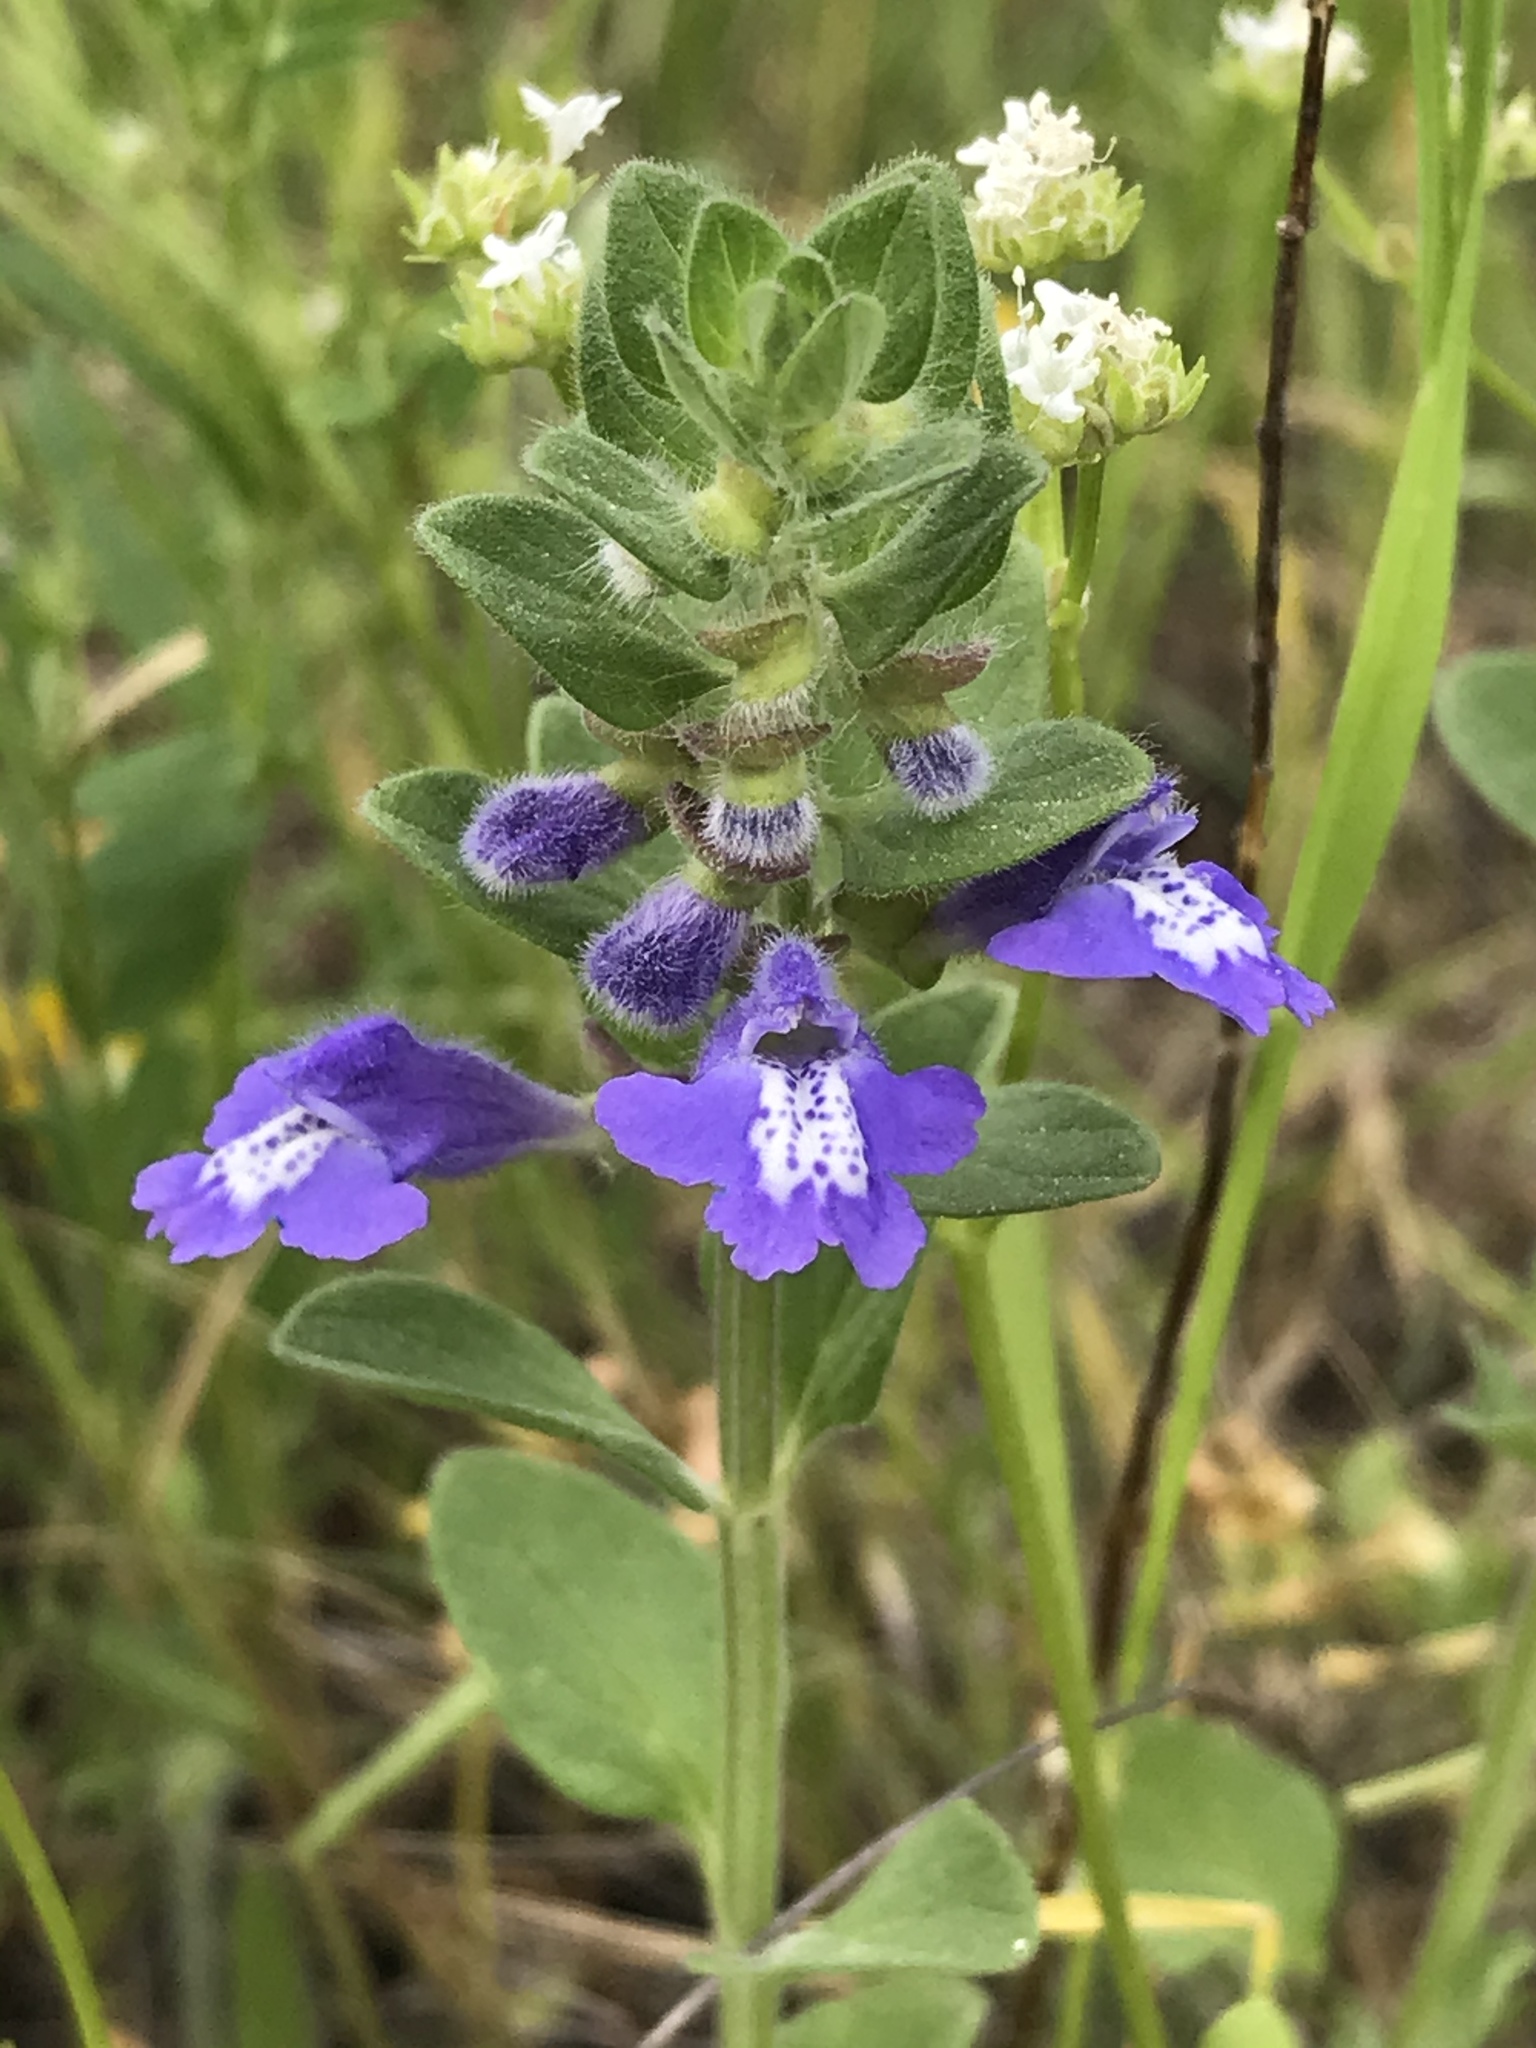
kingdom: Plantae
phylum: Tracheophyta
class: Magnoliopsida
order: Lamiales
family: Lamiaceae
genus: Scutellaria
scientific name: Scutellaria drummondii
